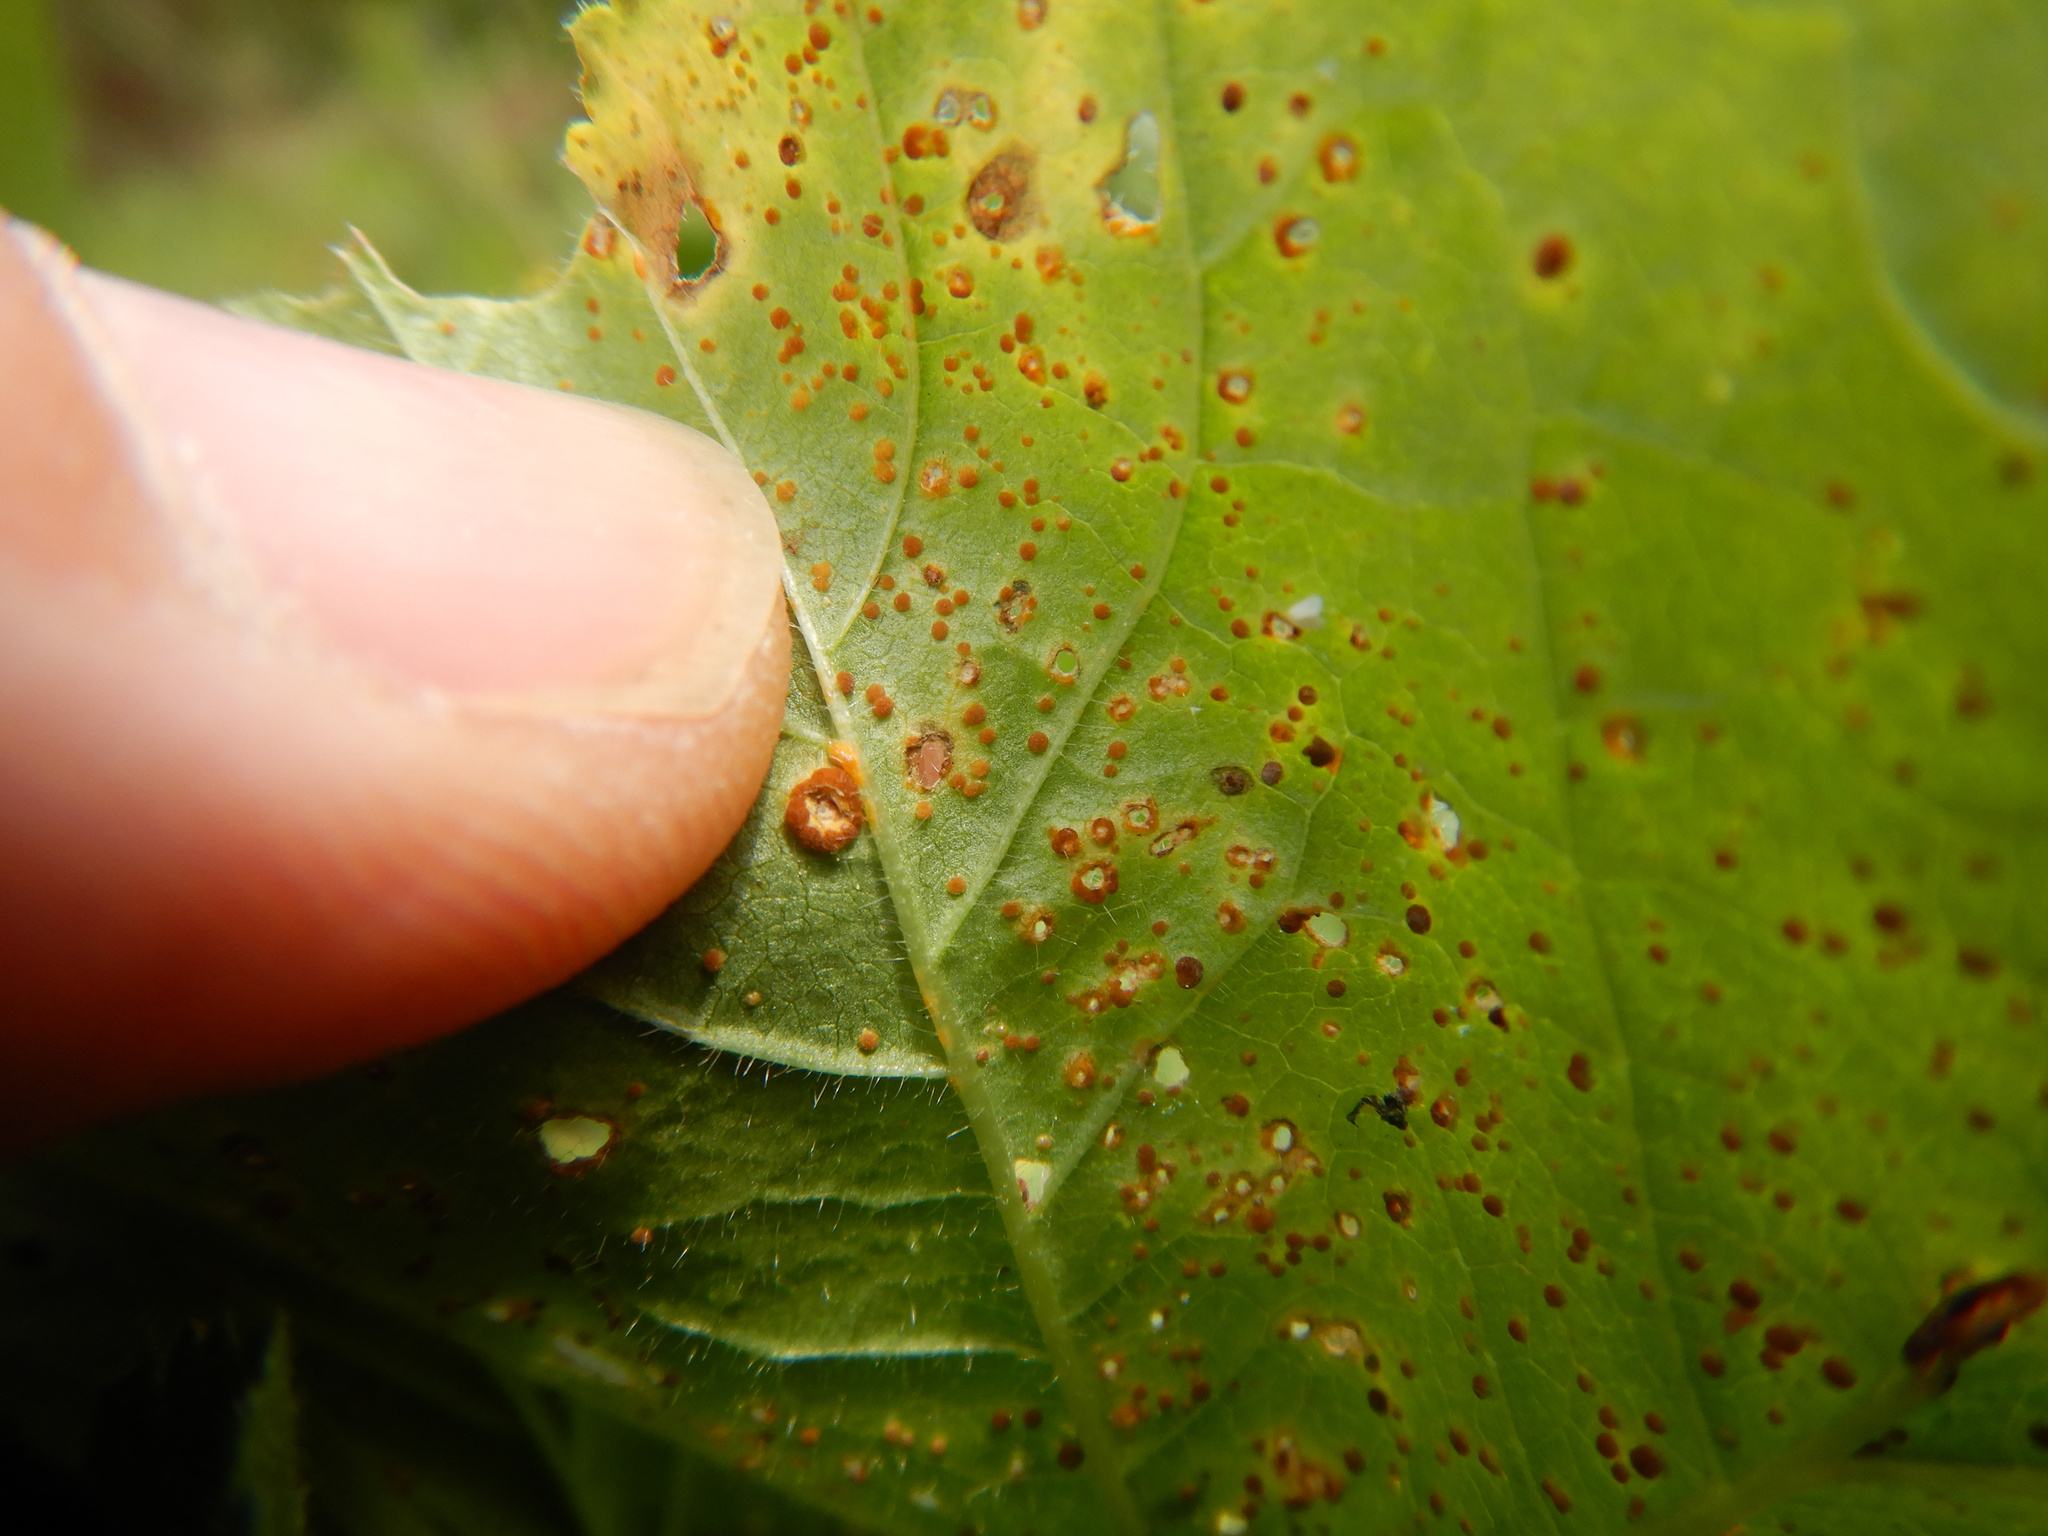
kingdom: Fungi
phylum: Basidiomycota
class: Pucciniomycetes
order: Pucciniales
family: Pucciniaceae
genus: Puccinia
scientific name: Puccinia malvacearum
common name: Hollyhock rust
